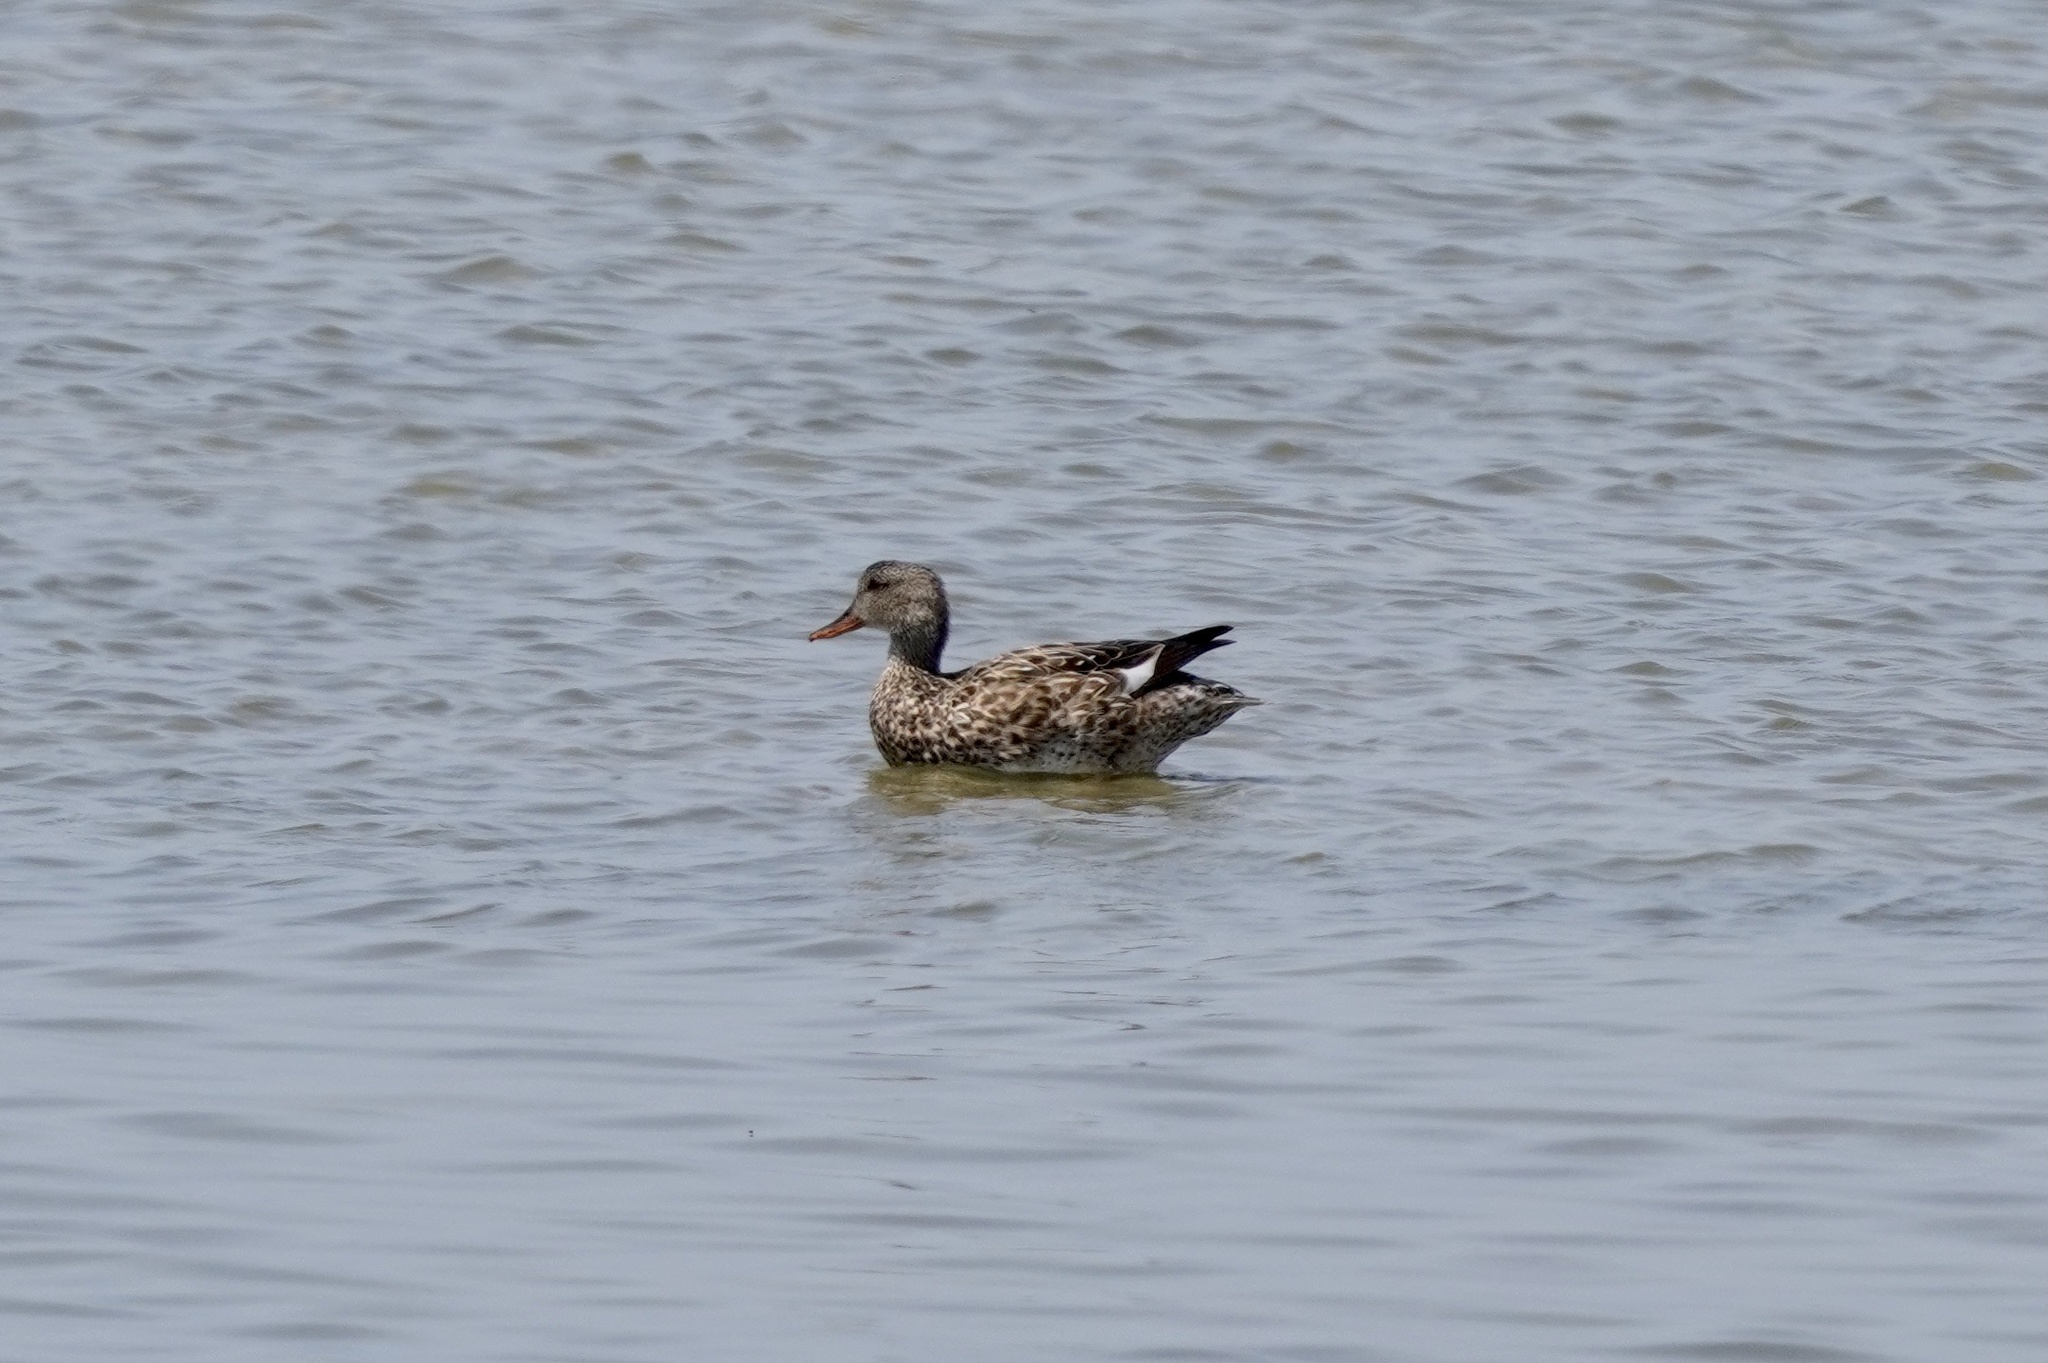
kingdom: Animalia
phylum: Chordata
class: Aves
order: Anseriformes
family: Anatidae
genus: Mareca
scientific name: Mareca strepera
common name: Gadwall
